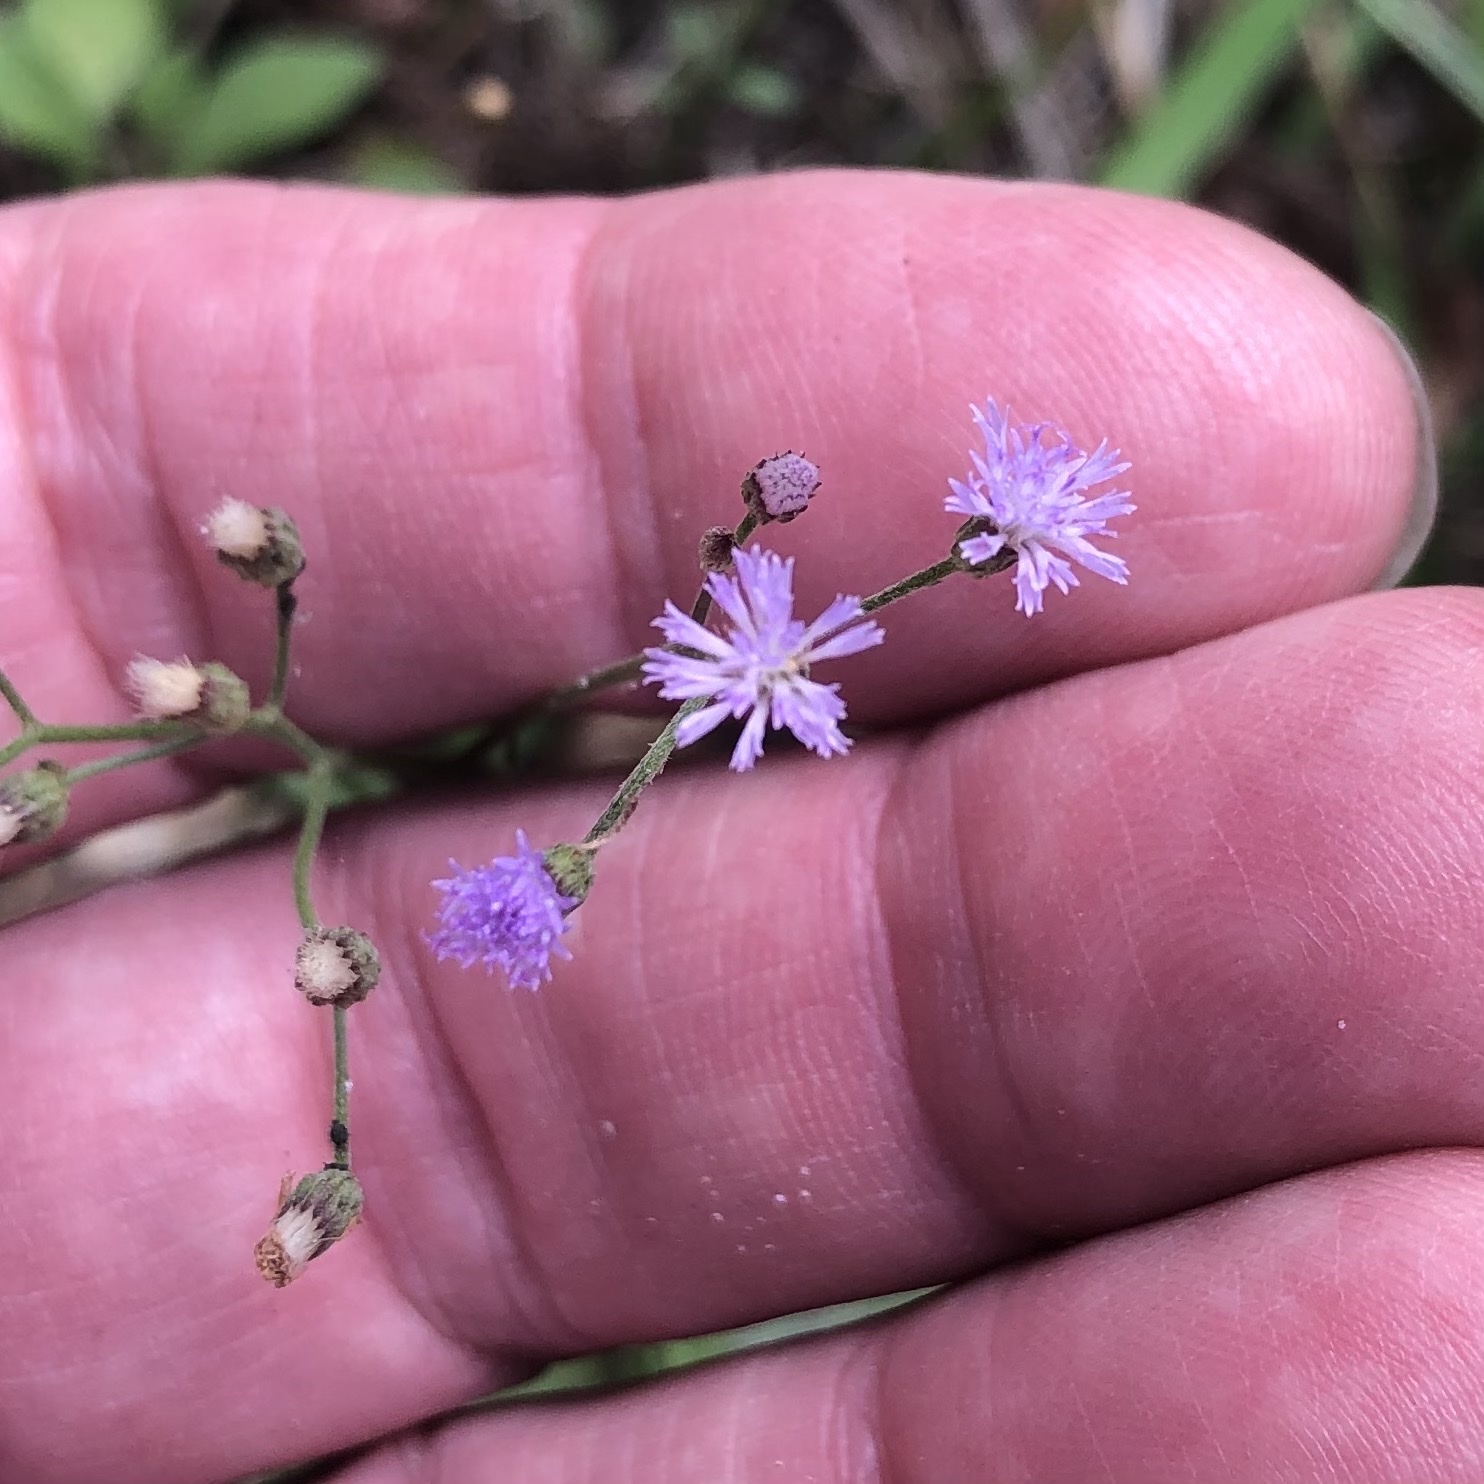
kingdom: Plantae
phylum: Tracheophyta
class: Magnoliopsida
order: Asterales
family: Asteraceae
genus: Cyanthillium
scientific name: Cyanthillium cinereum
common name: Little ironweed
